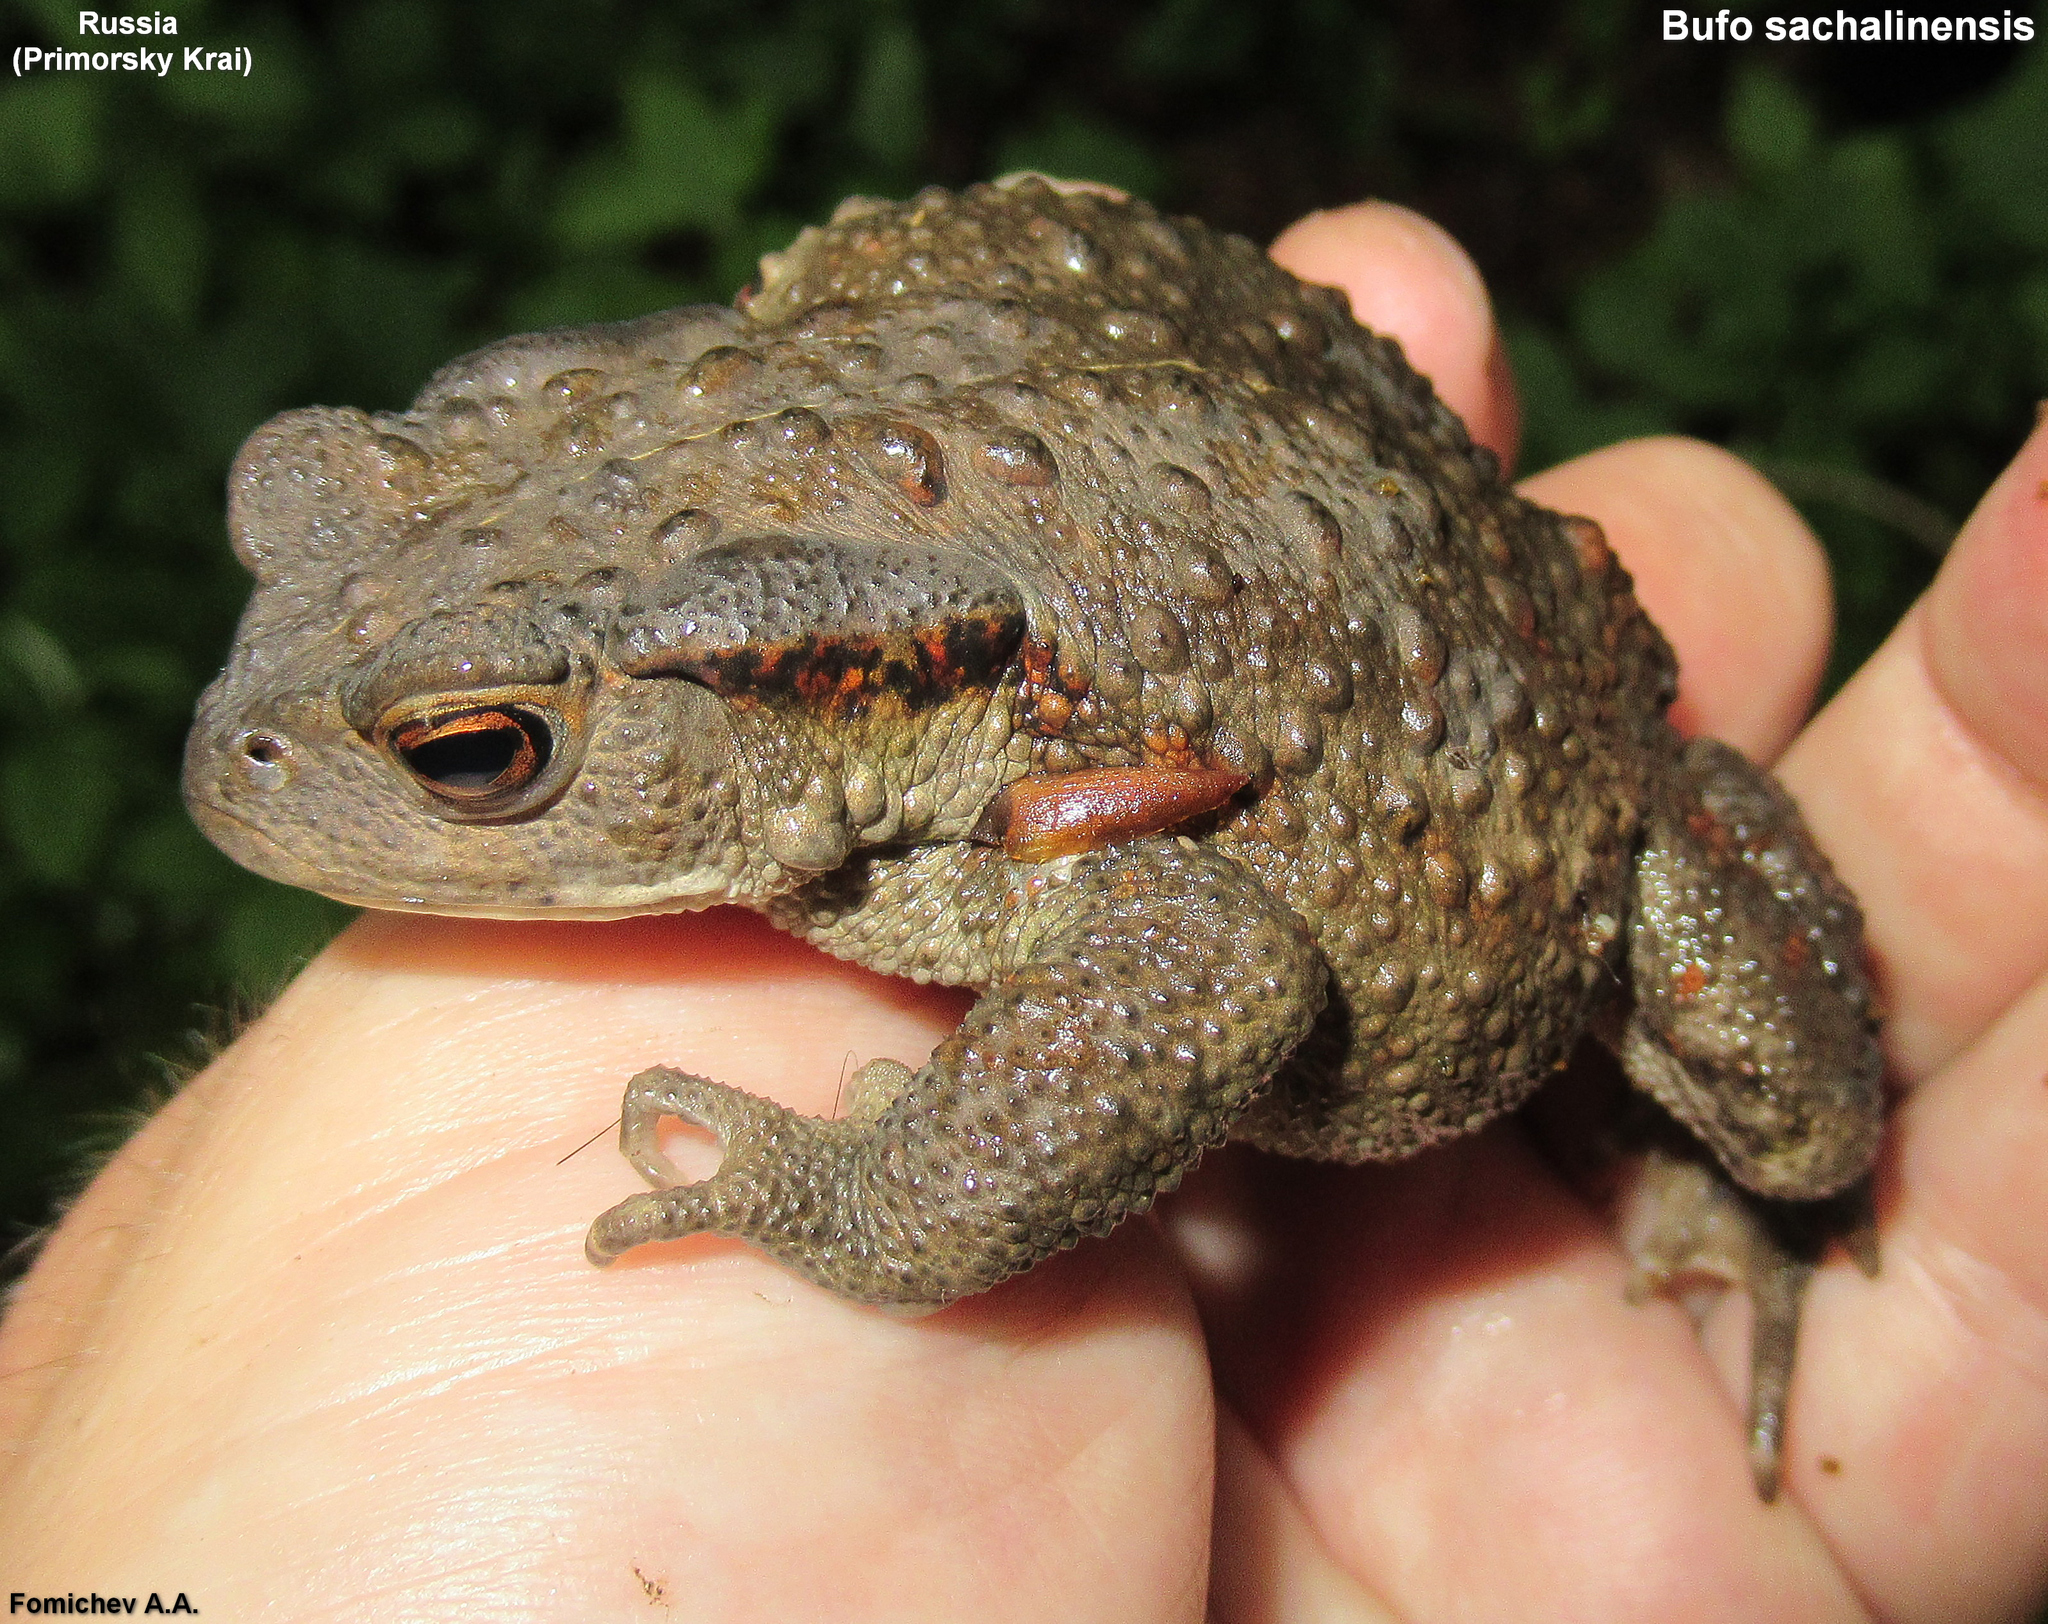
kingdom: Animalia
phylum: Chordata
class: Amphibia
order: Anura
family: Bufonidae
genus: Bufo
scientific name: Bufo gargarizans
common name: Asiatic toad
